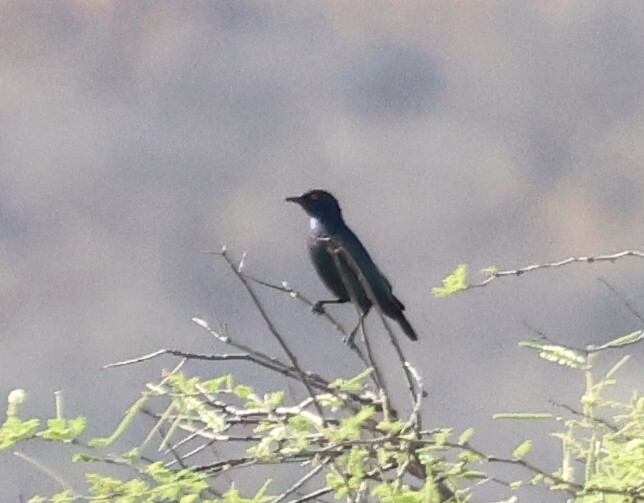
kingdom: Animalia
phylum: Chordata
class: Aves
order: Passeriformes
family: Sturnidae
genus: Lamprotornis
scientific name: Lamprotornis nitens
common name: Cape starling
